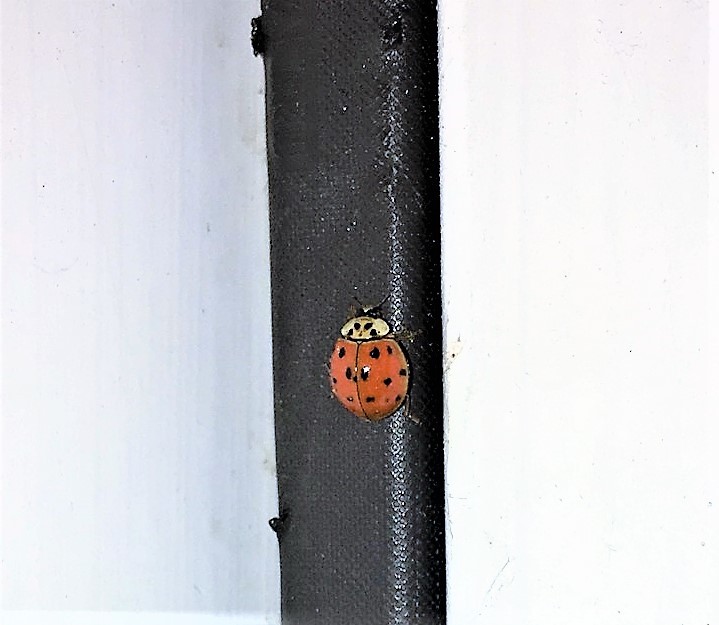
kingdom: Animalia
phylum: Arthropoda
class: Insecta
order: Coleoptera
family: Coccinellidae
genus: Harmonia
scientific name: Harmonia axyridis
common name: Harlequin ladybird
